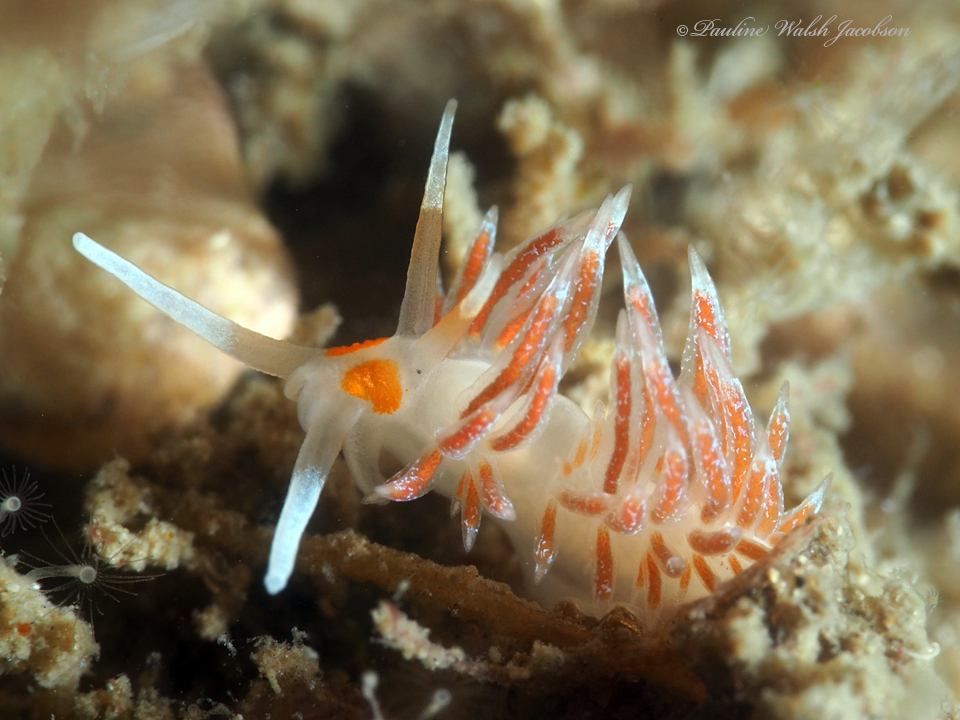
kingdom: Animalia
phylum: Mollusca
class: Gastropoda
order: Nudibranchia
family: Facelinidae
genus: Cratena
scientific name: Cratena minor
